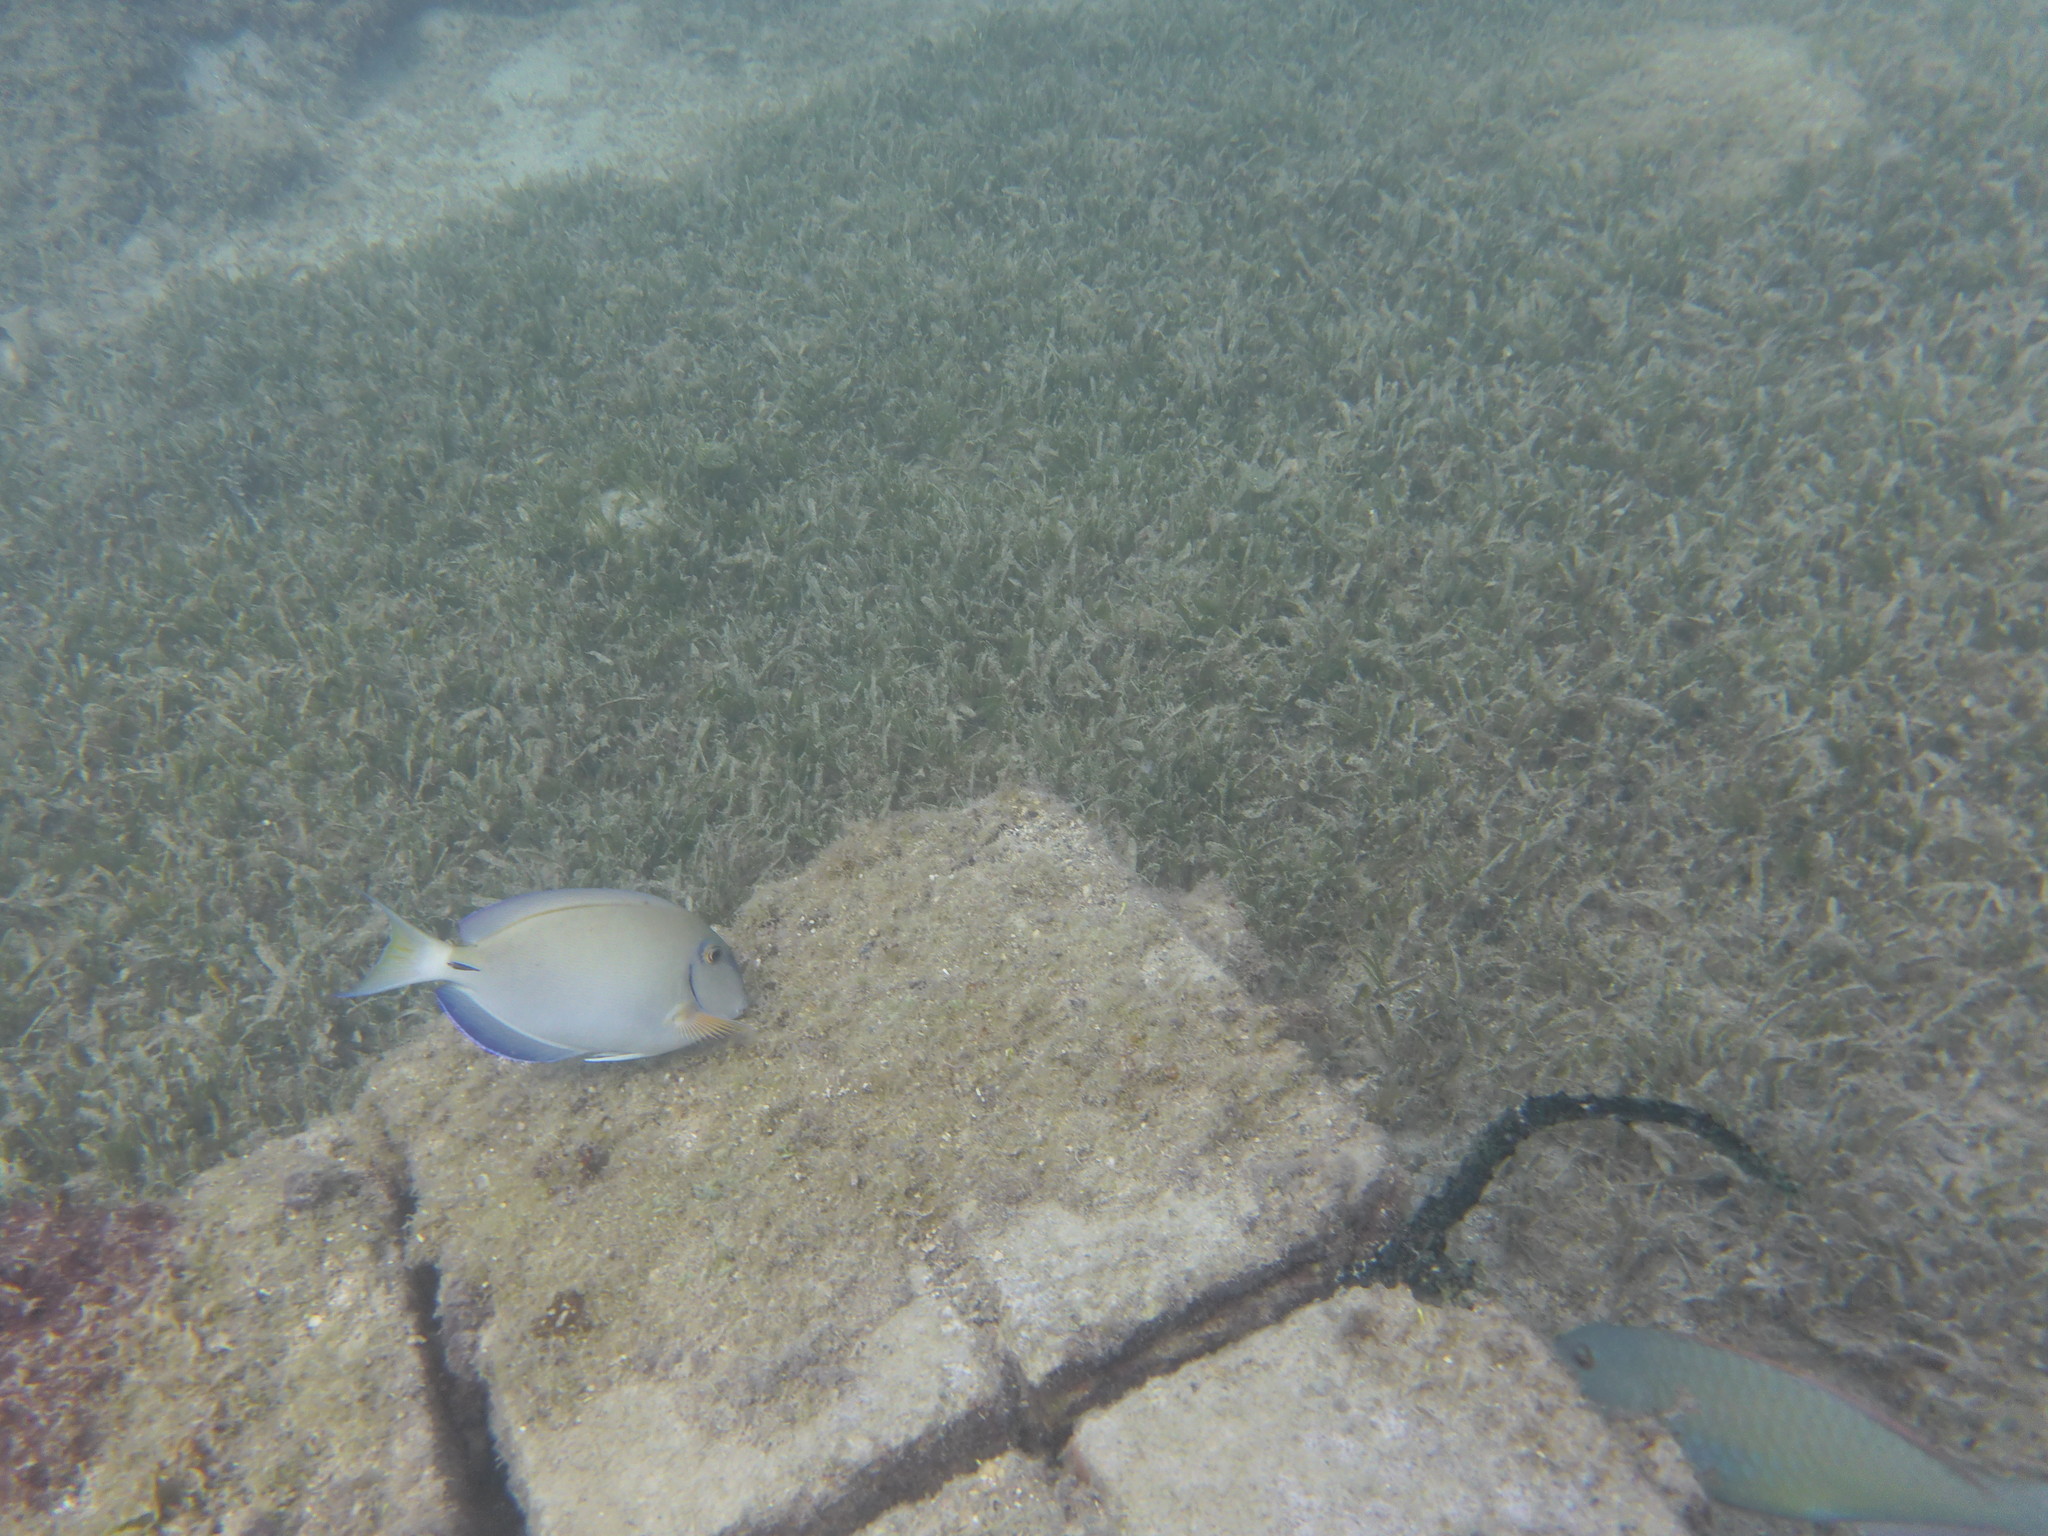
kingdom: Animalia
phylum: Chordata
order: Perciformes
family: Acanthuridae
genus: Acanthurus
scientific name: Acanthurus bahianus
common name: Ocean surgeon
